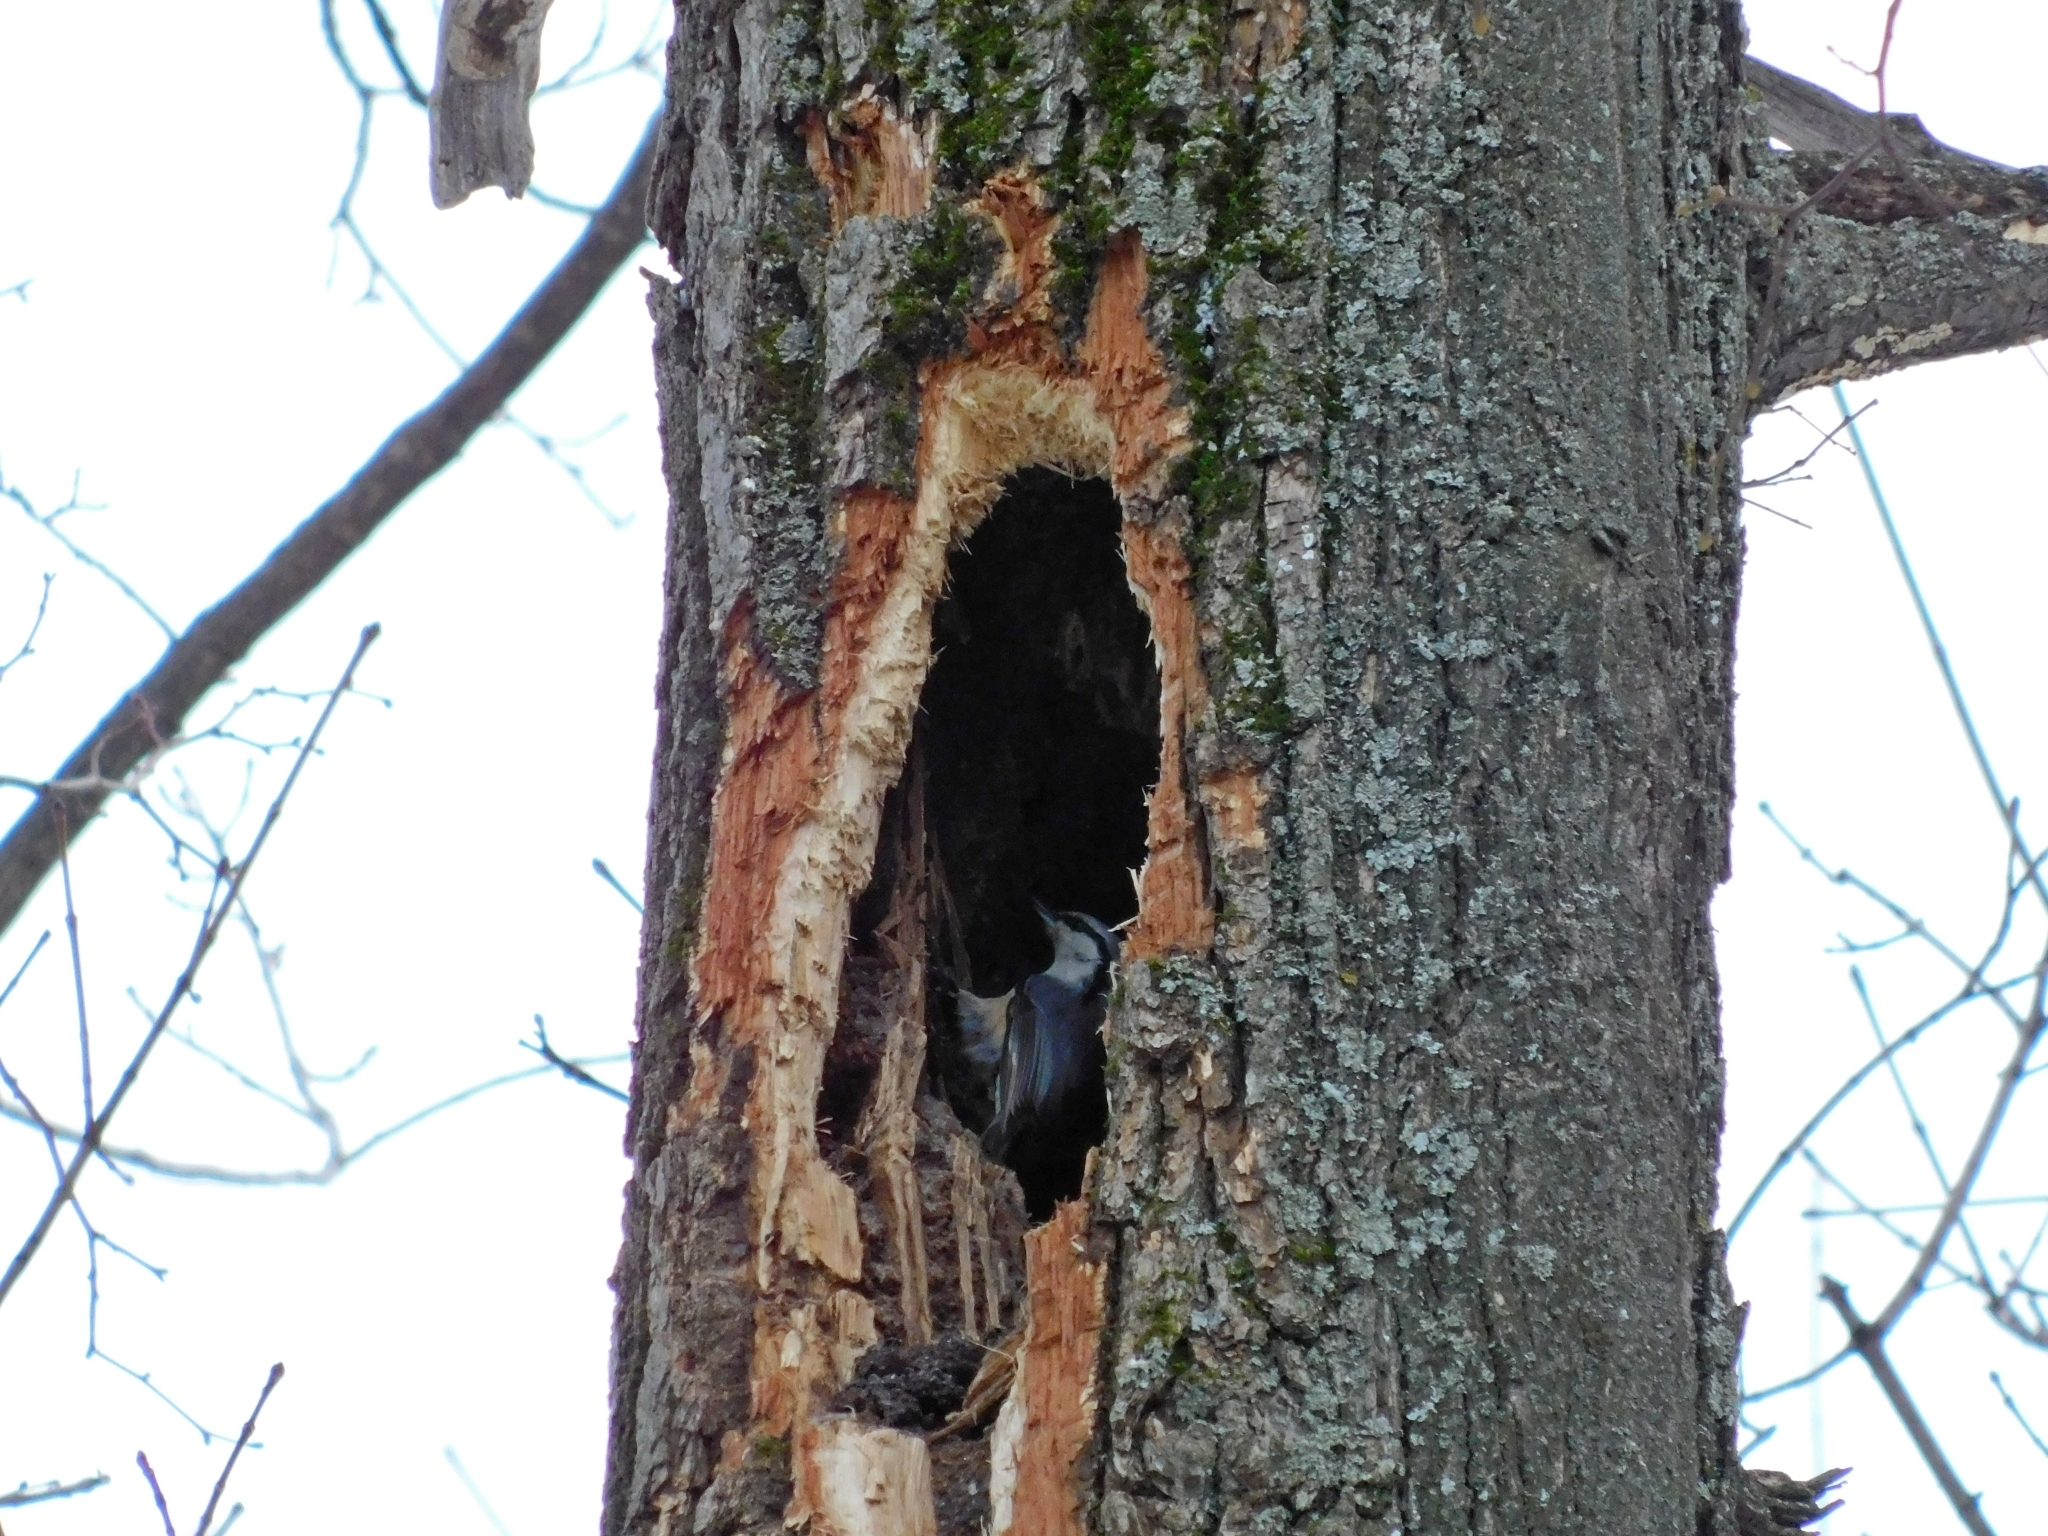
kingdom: Animalia
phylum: Chordata
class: Aves
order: Passeriformes
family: Sittidae
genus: Sitta
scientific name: Sitta europaea
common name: Eurasian nuthatch
